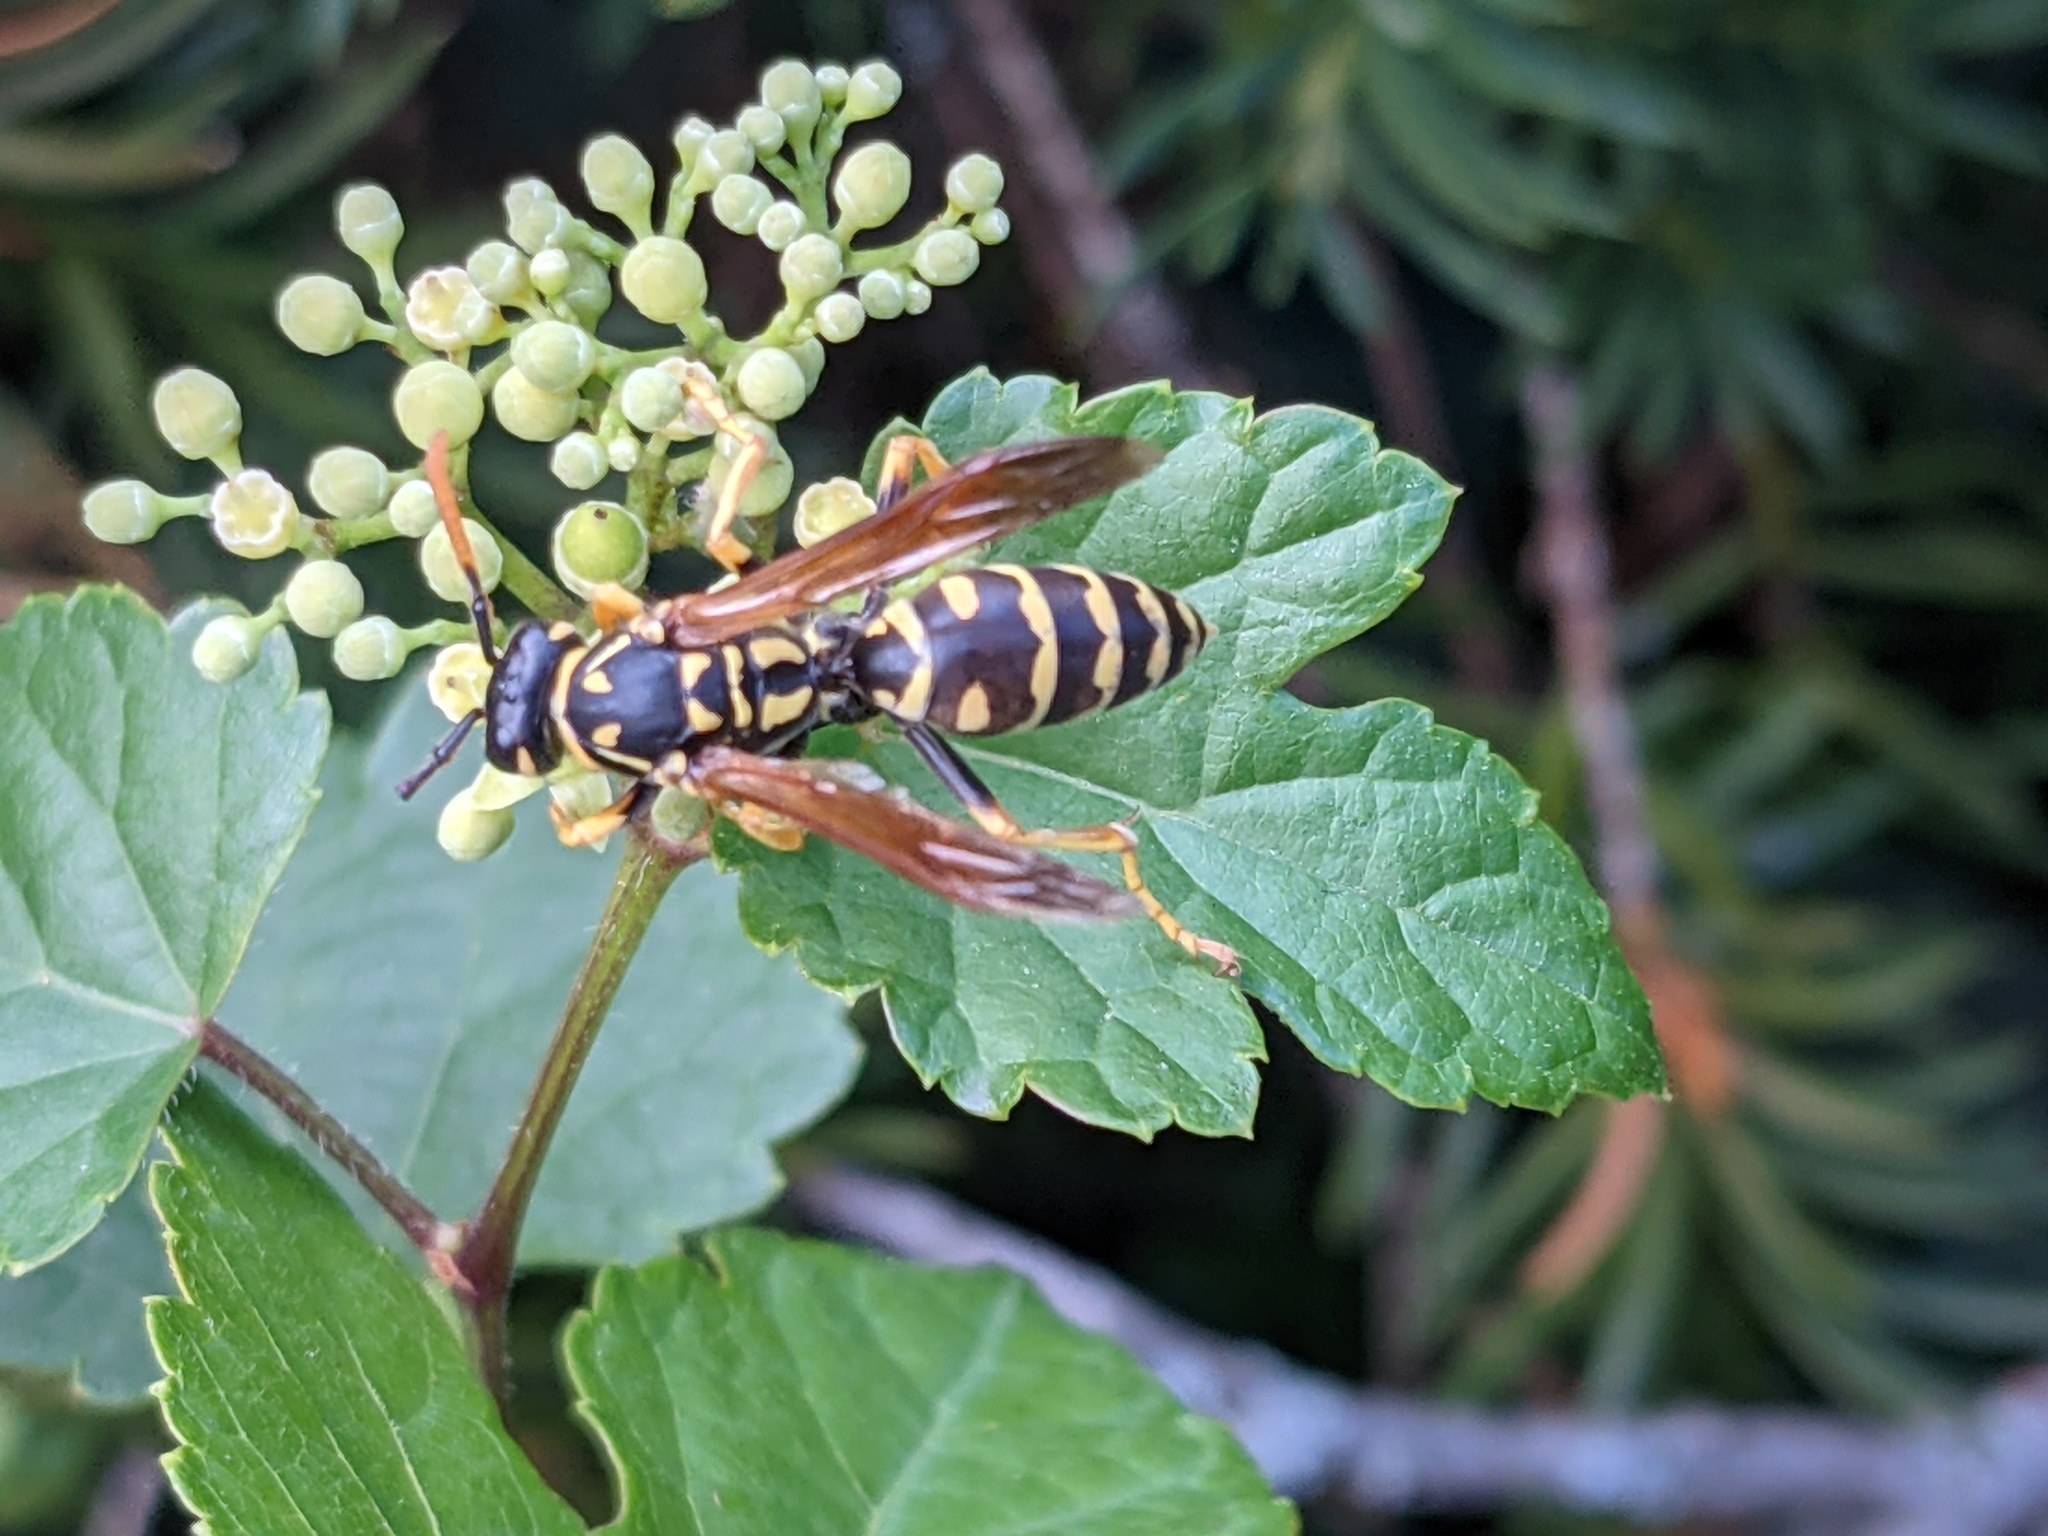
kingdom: Animalia
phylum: Arthropoda
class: Insecta
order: Hymenoptera
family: Eumenidae
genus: Polistes
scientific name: Polistes dominula
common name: Paper wasp
